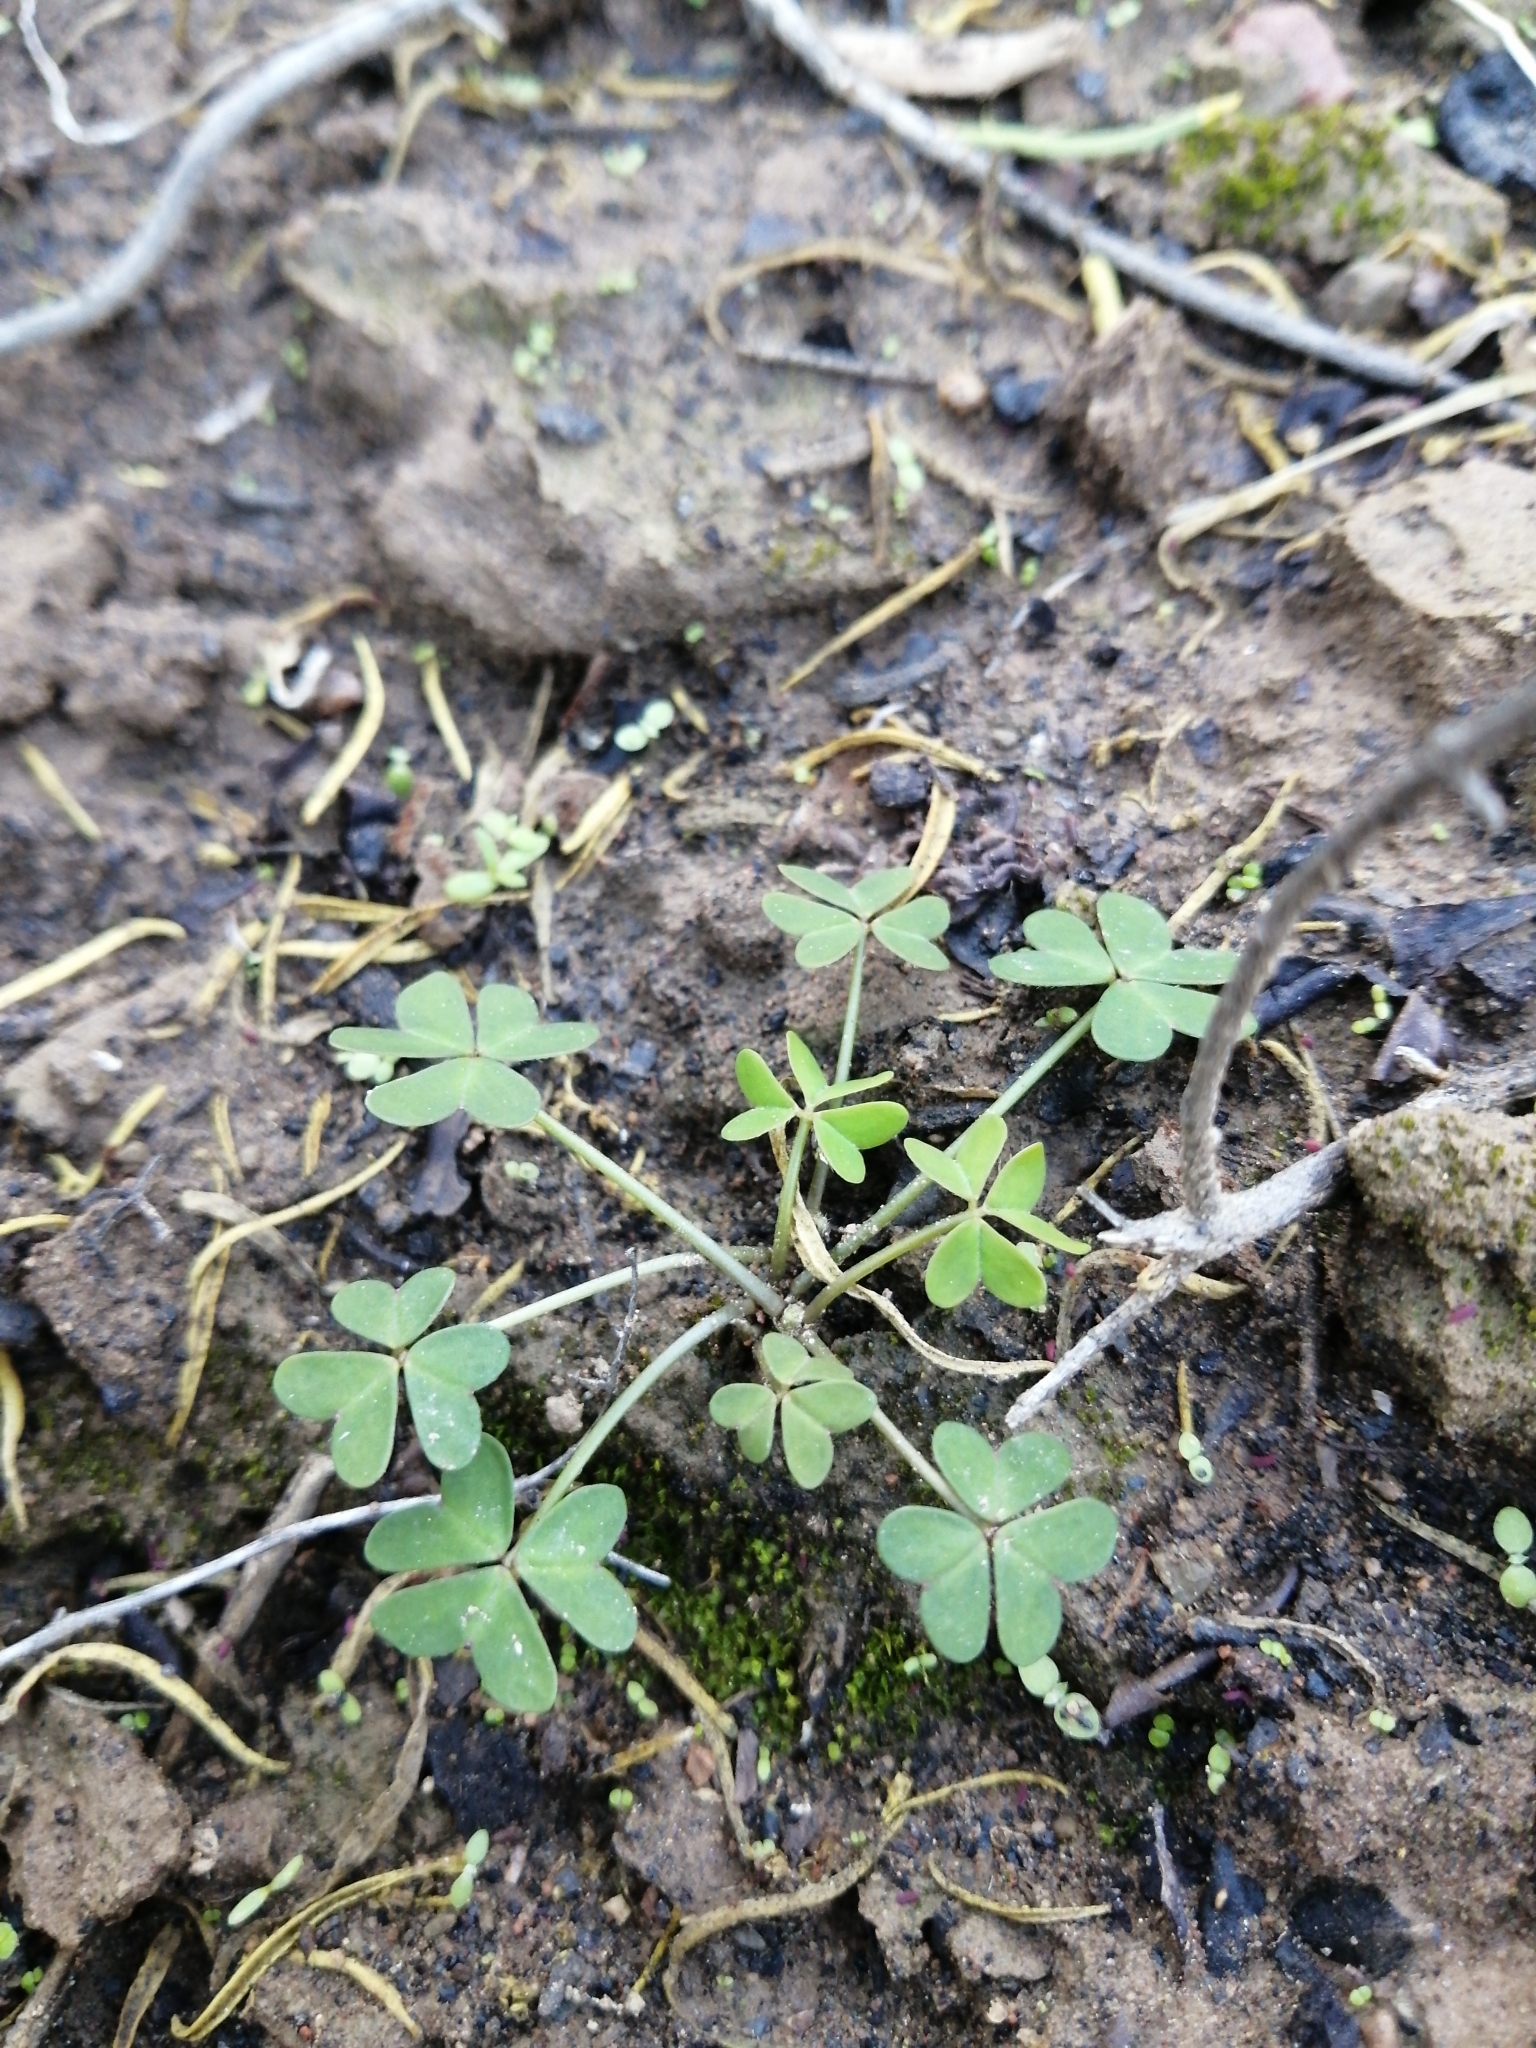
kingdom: Plantae
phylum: Tracheophyta
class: Magnoliopsida
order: Oxalidales
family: Oxalidaceae
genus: Oxalis
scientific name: Oxalis pes-caprae
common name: Bermuda-buttercup
